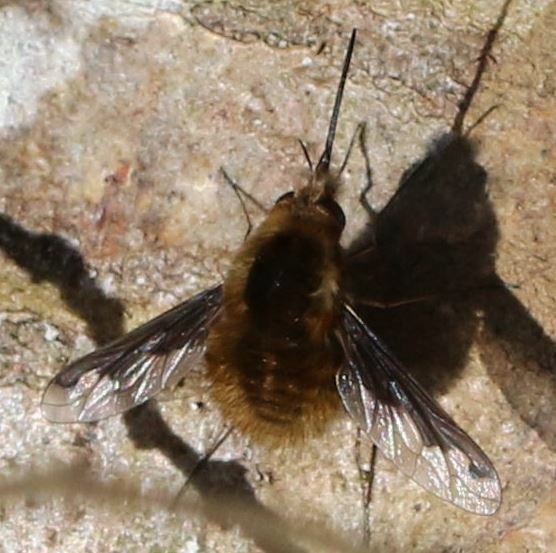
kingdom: Animalia
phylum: Arthropoda
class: Insecta
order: Diptera
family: Bombyliidae
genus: Bombylius
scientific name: Bombylius major
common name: Bee fly
